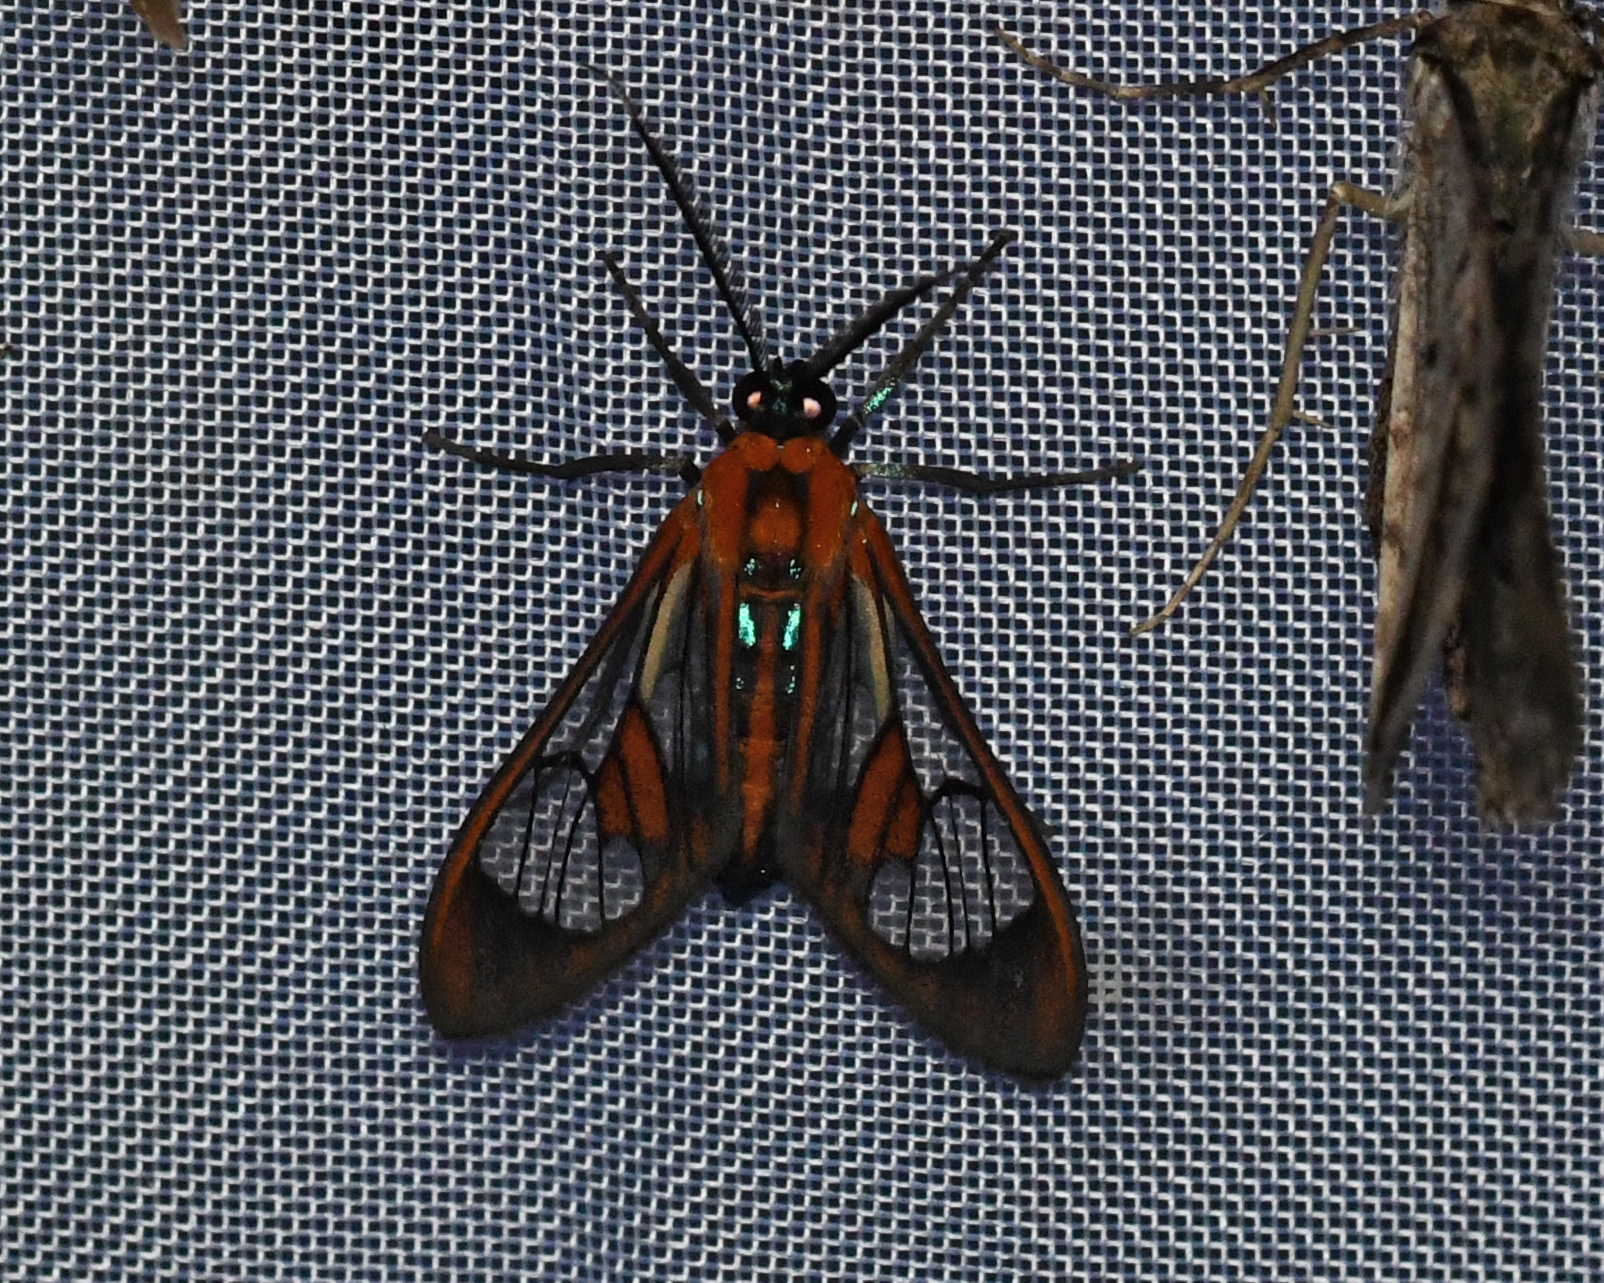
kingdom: Animalia
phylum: Arthropoda
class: Insecta
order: Lepidoptera
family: Erebidae
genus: Cosmosoma
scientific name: Cosmosoma achemon
